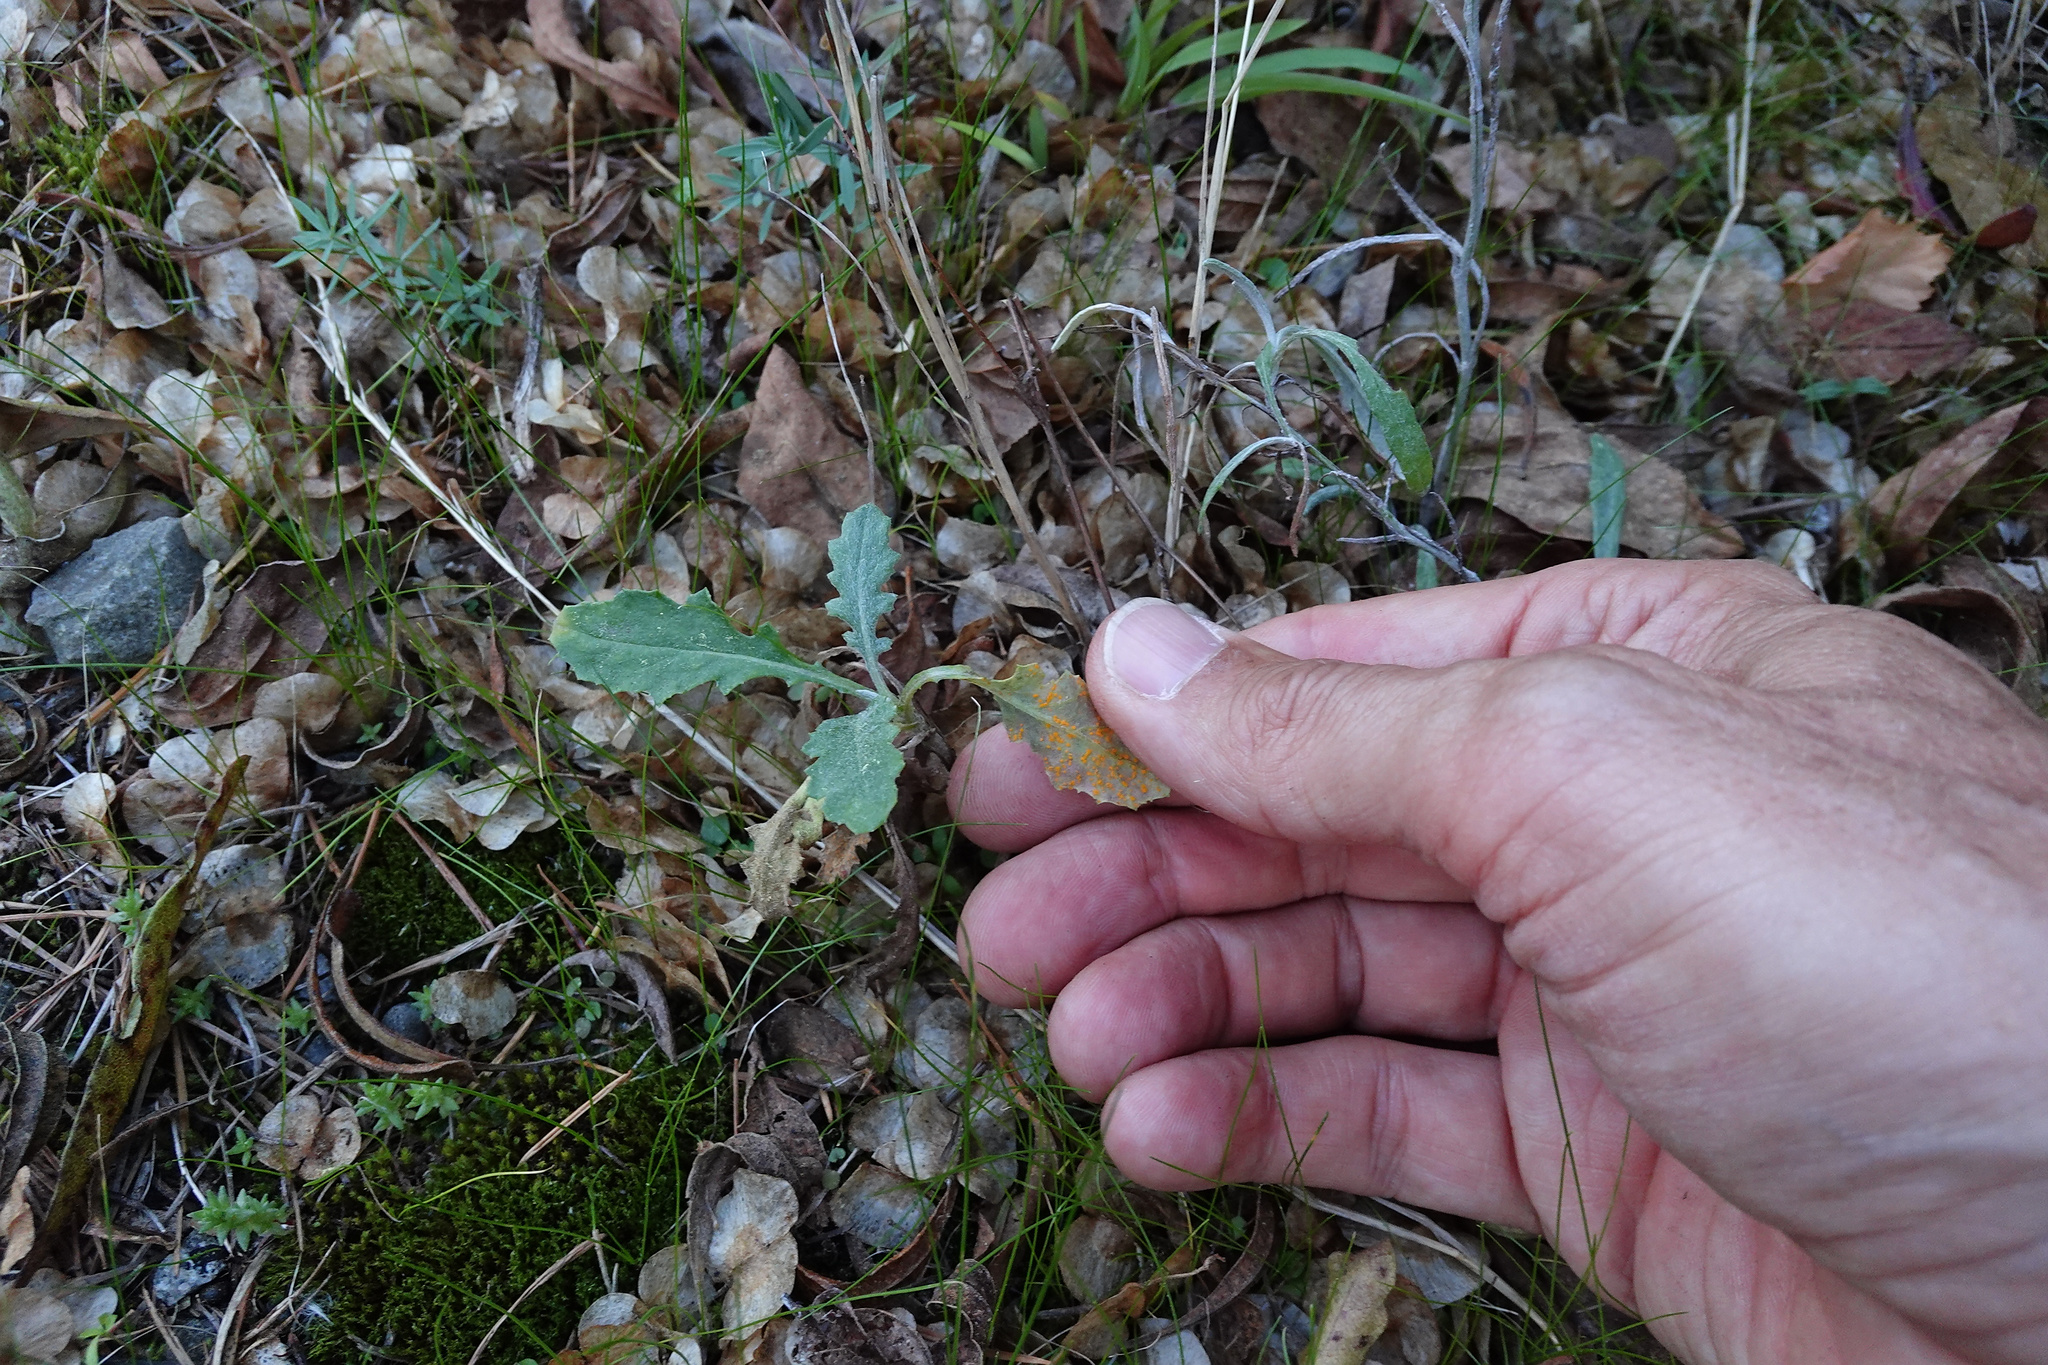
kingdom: Plantae
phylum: Tracheophyta
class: Magnoliopsida
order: Asterales
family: Asteraceae
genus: Senecio
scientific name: Senecio glomeratus
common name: Cutleaf burnweed
